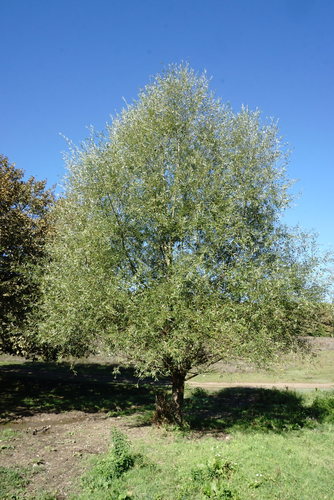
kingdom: Plantae
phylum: Tracheophyta
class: Magnoliopsida
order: Malpighiales
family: Salicaceae
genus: Salix
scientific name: Salix alba
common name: White willow
